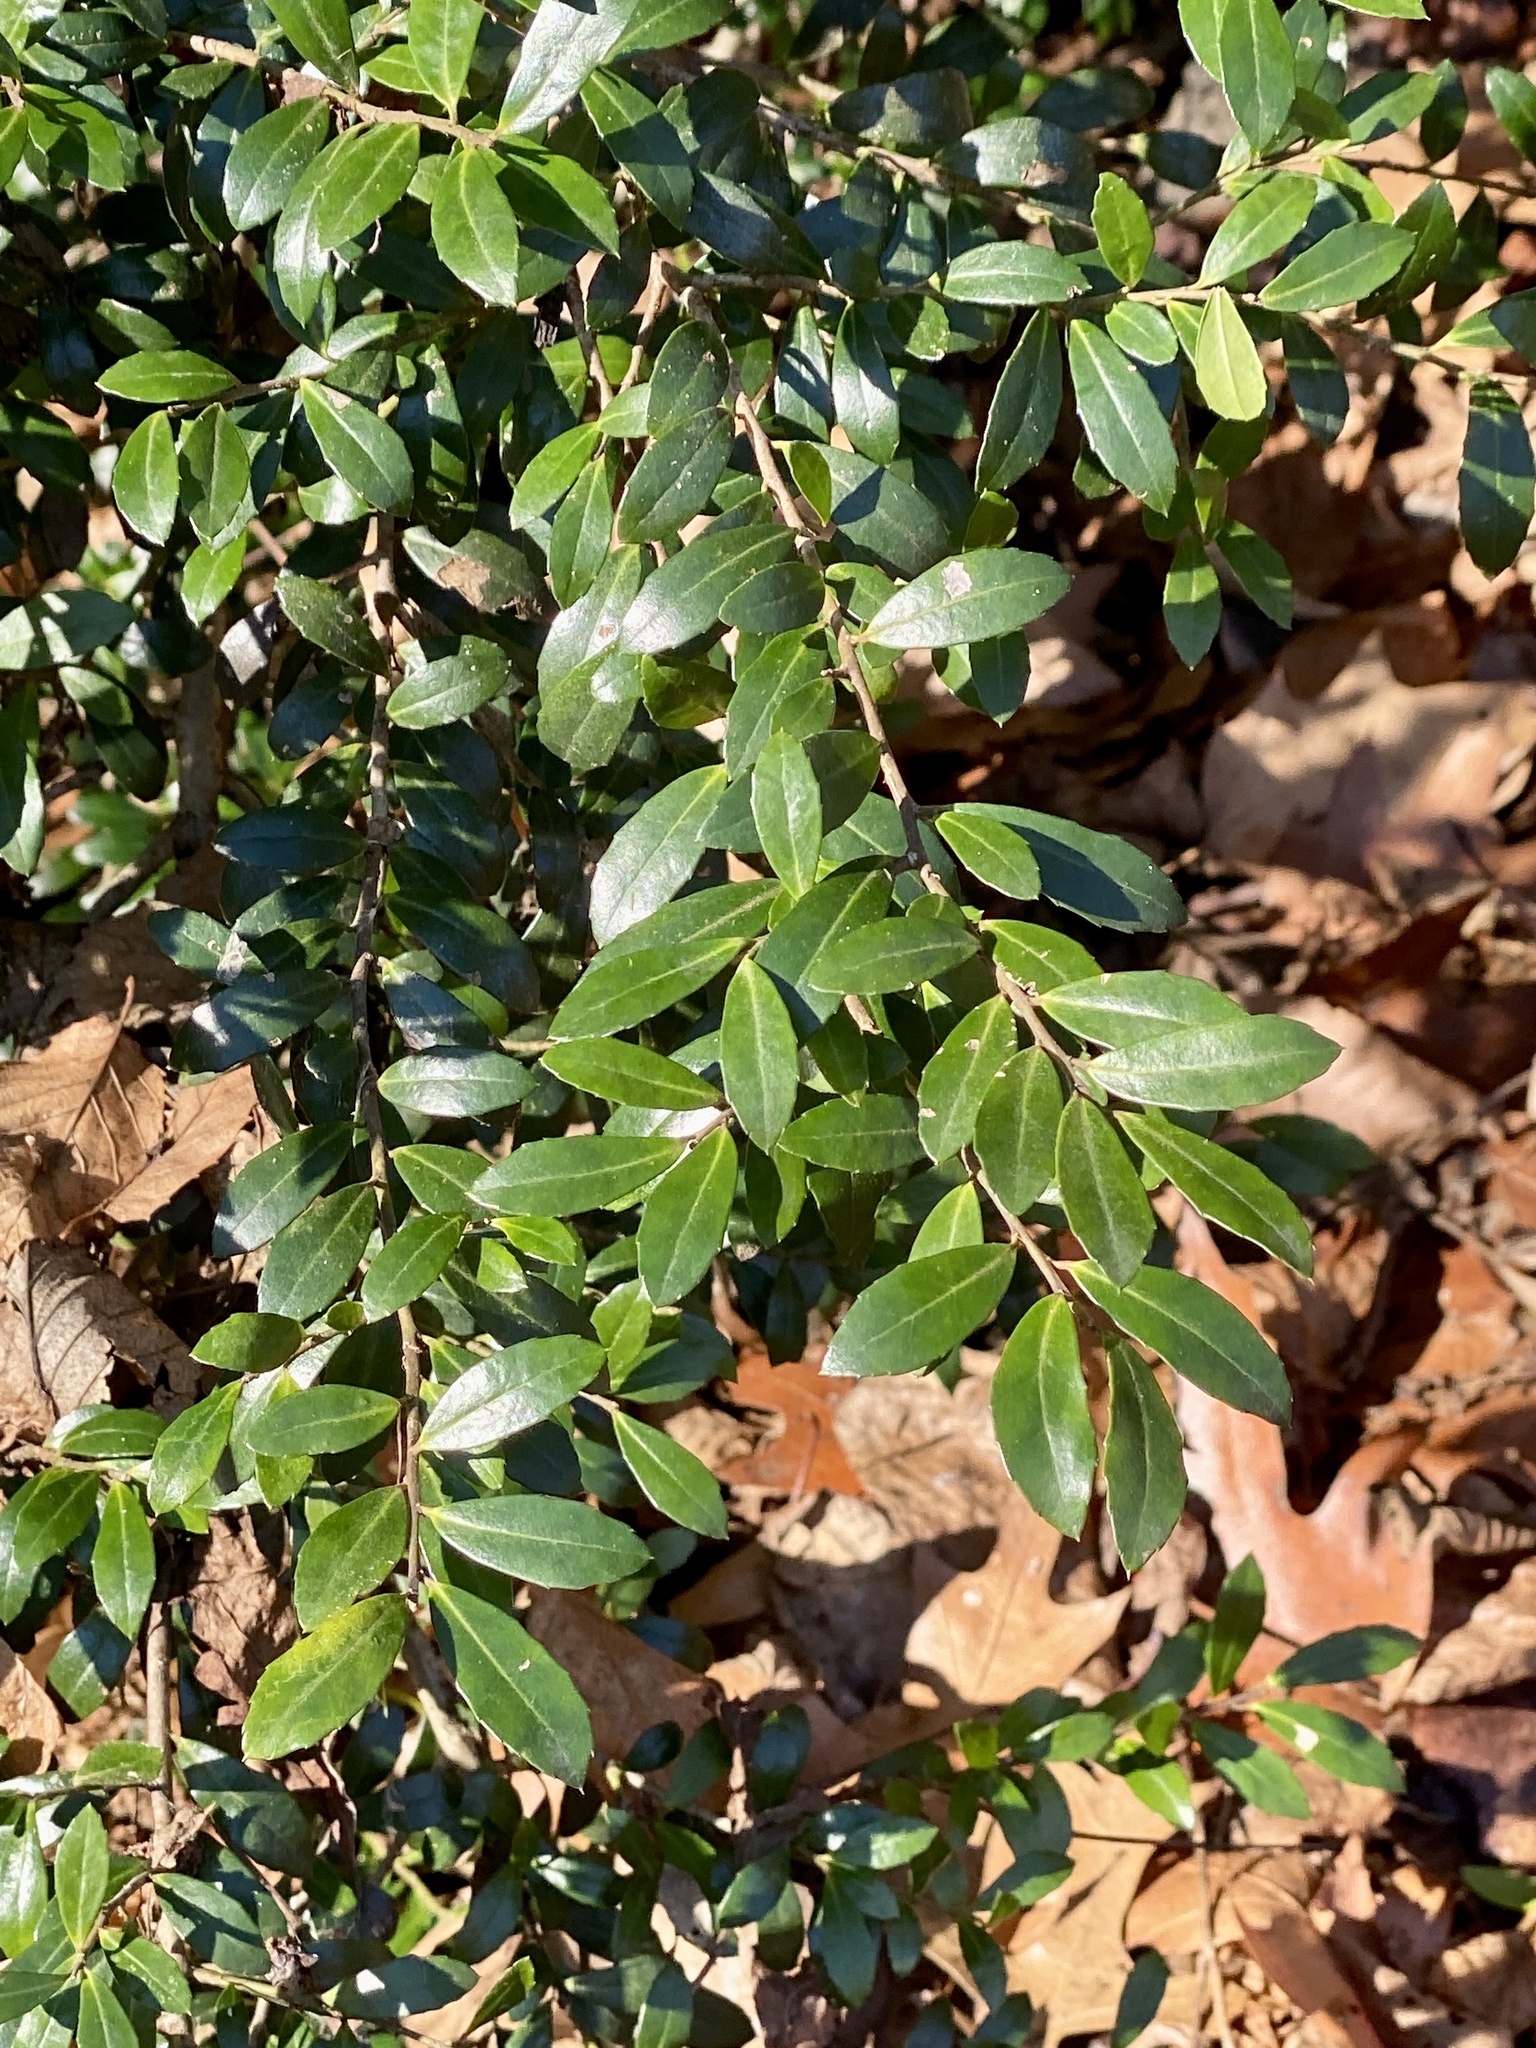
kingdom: Plantae
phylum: Tracheophyta
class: Magnoliopsida
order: Aquifoliales
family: Aquifoliaceae
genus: Ilex
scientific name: Ilex crenata
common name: Japanese holly
